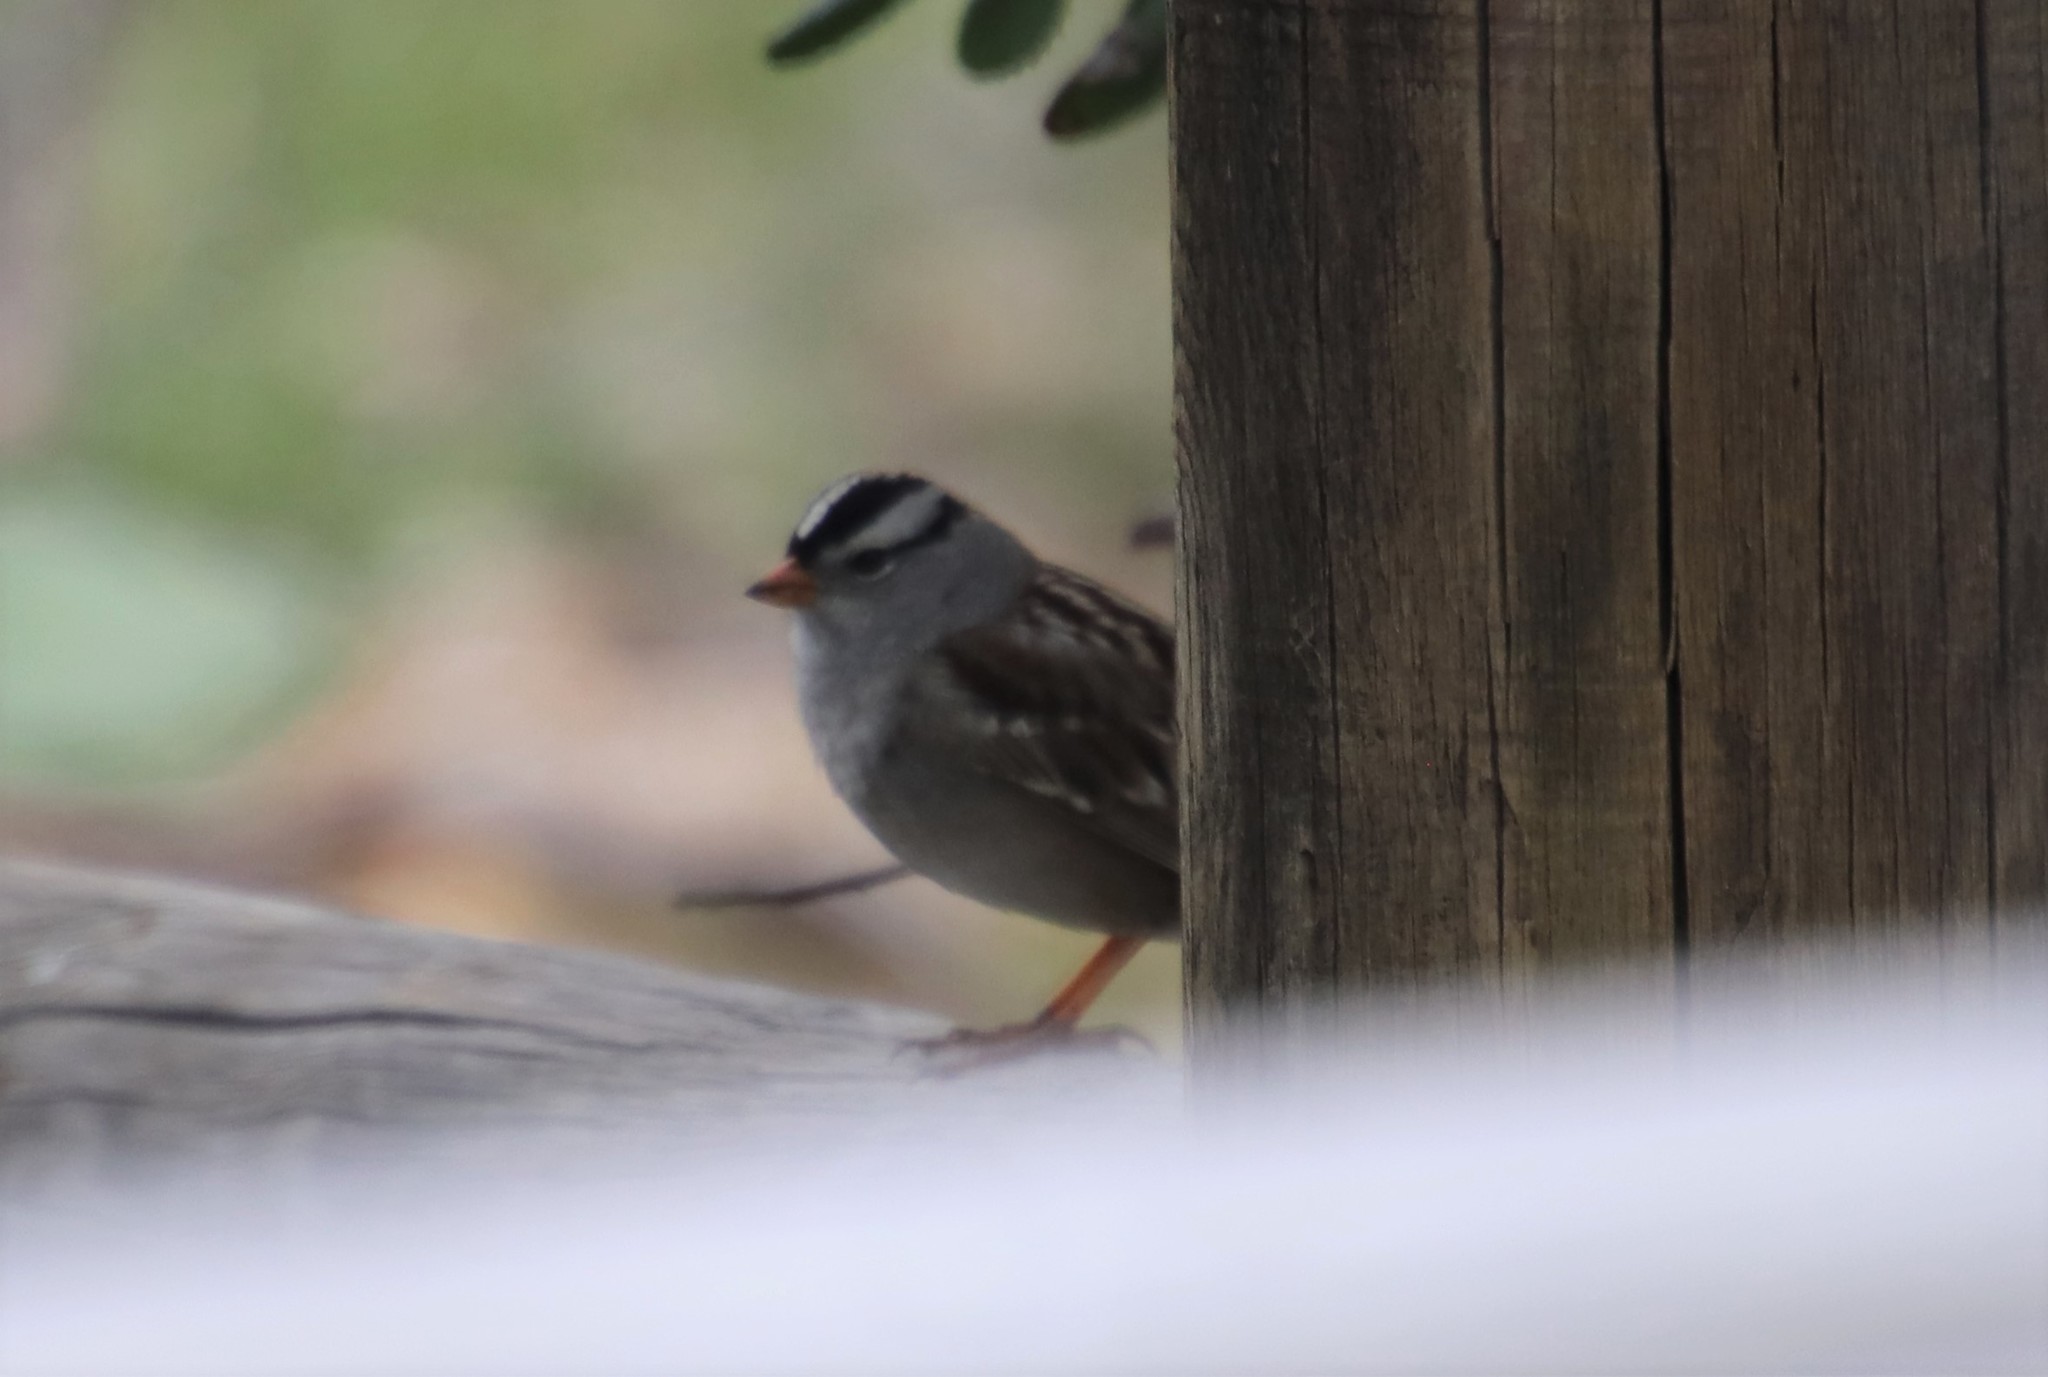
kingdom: Animalia
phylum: Chordata
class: Aves
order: Passeriformes
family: Passerellidae
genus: Zonotrichia
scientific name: Zonotrichia leucophrys
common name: White-crowned sparrow
